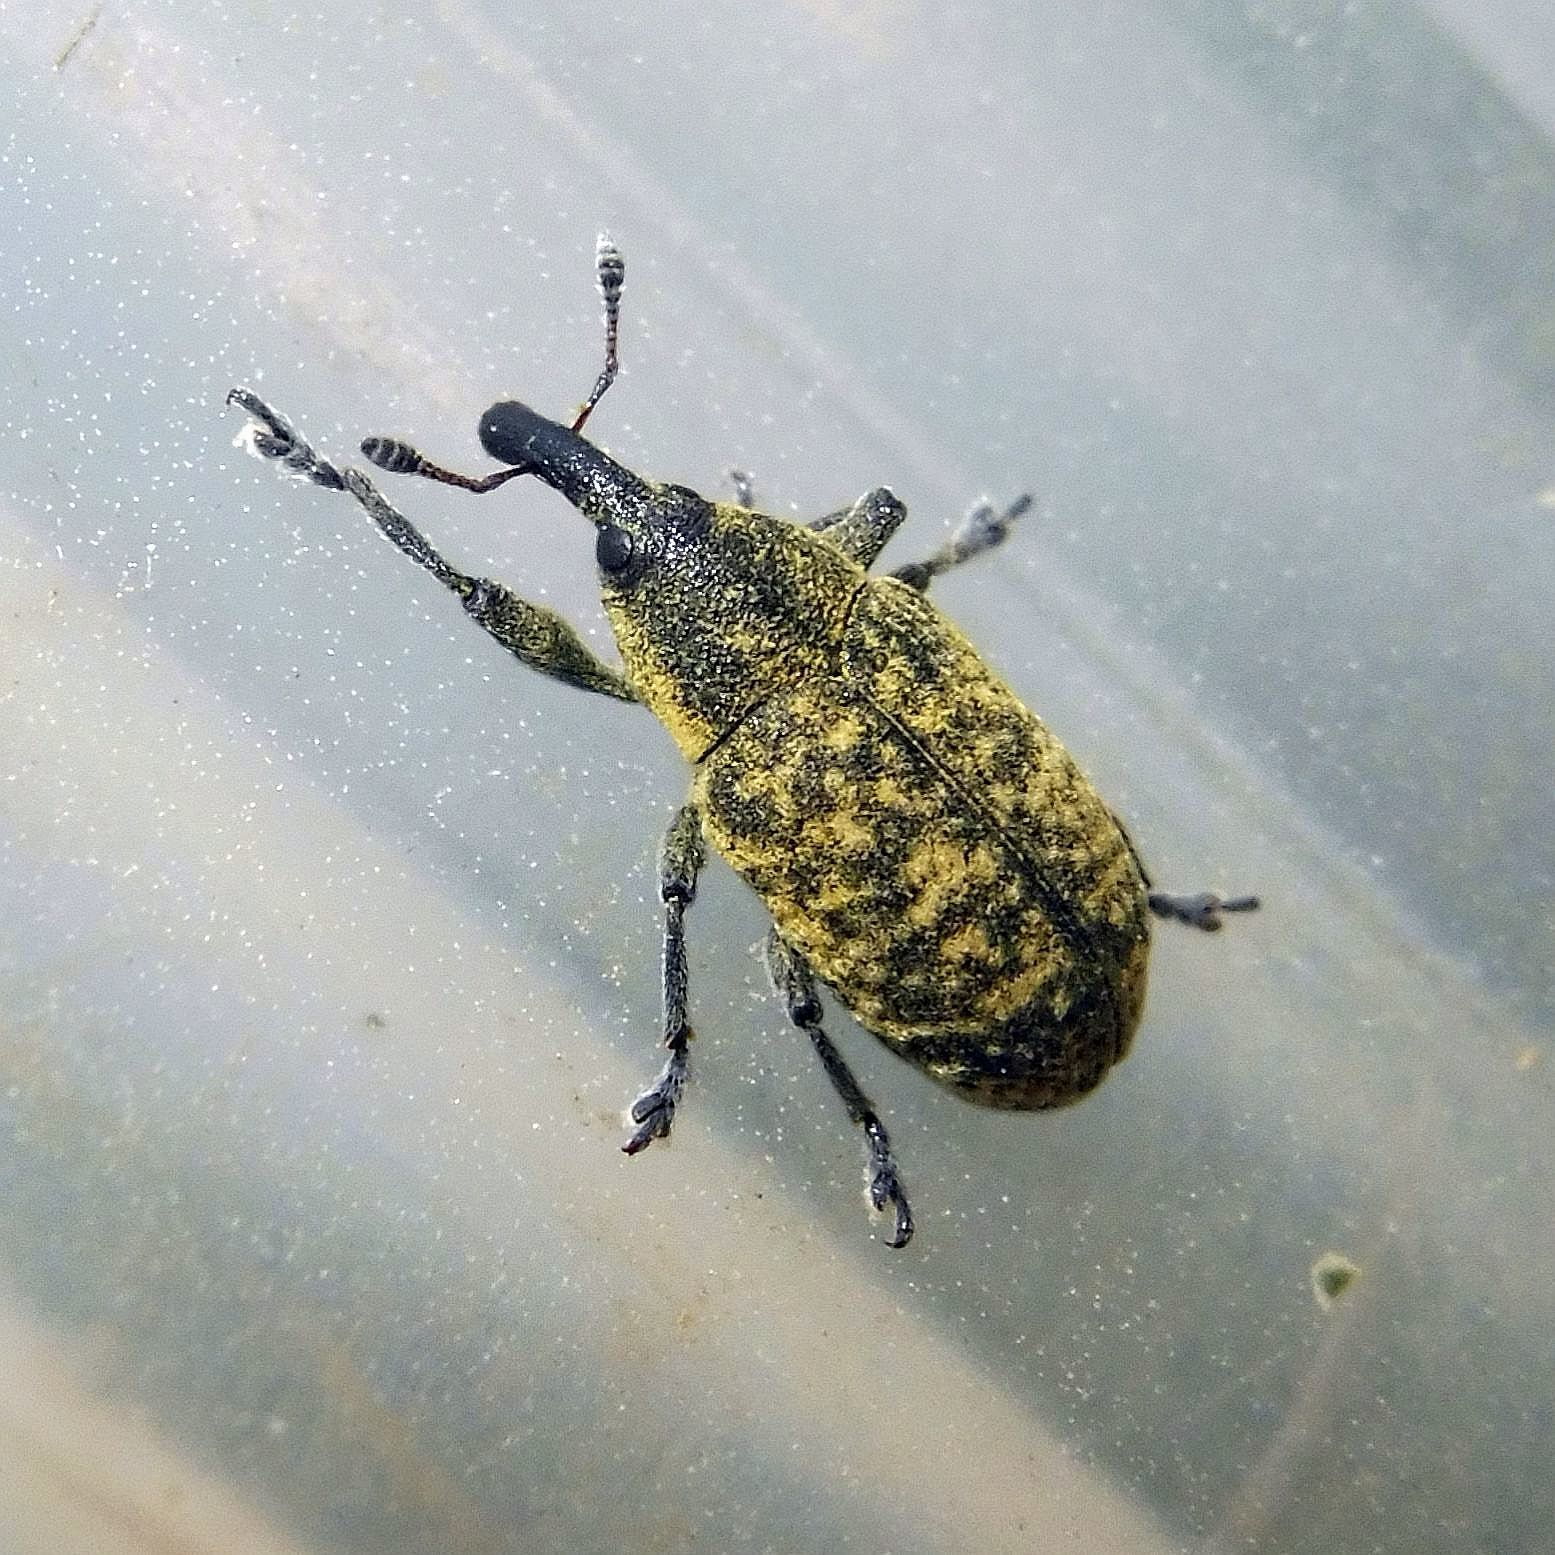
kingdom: Animalia
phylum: Arthropoda
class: Insecta
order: Coleoptera
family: Curculionidae
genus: Larinus
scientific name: Larinus carlinae
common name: Weevil
